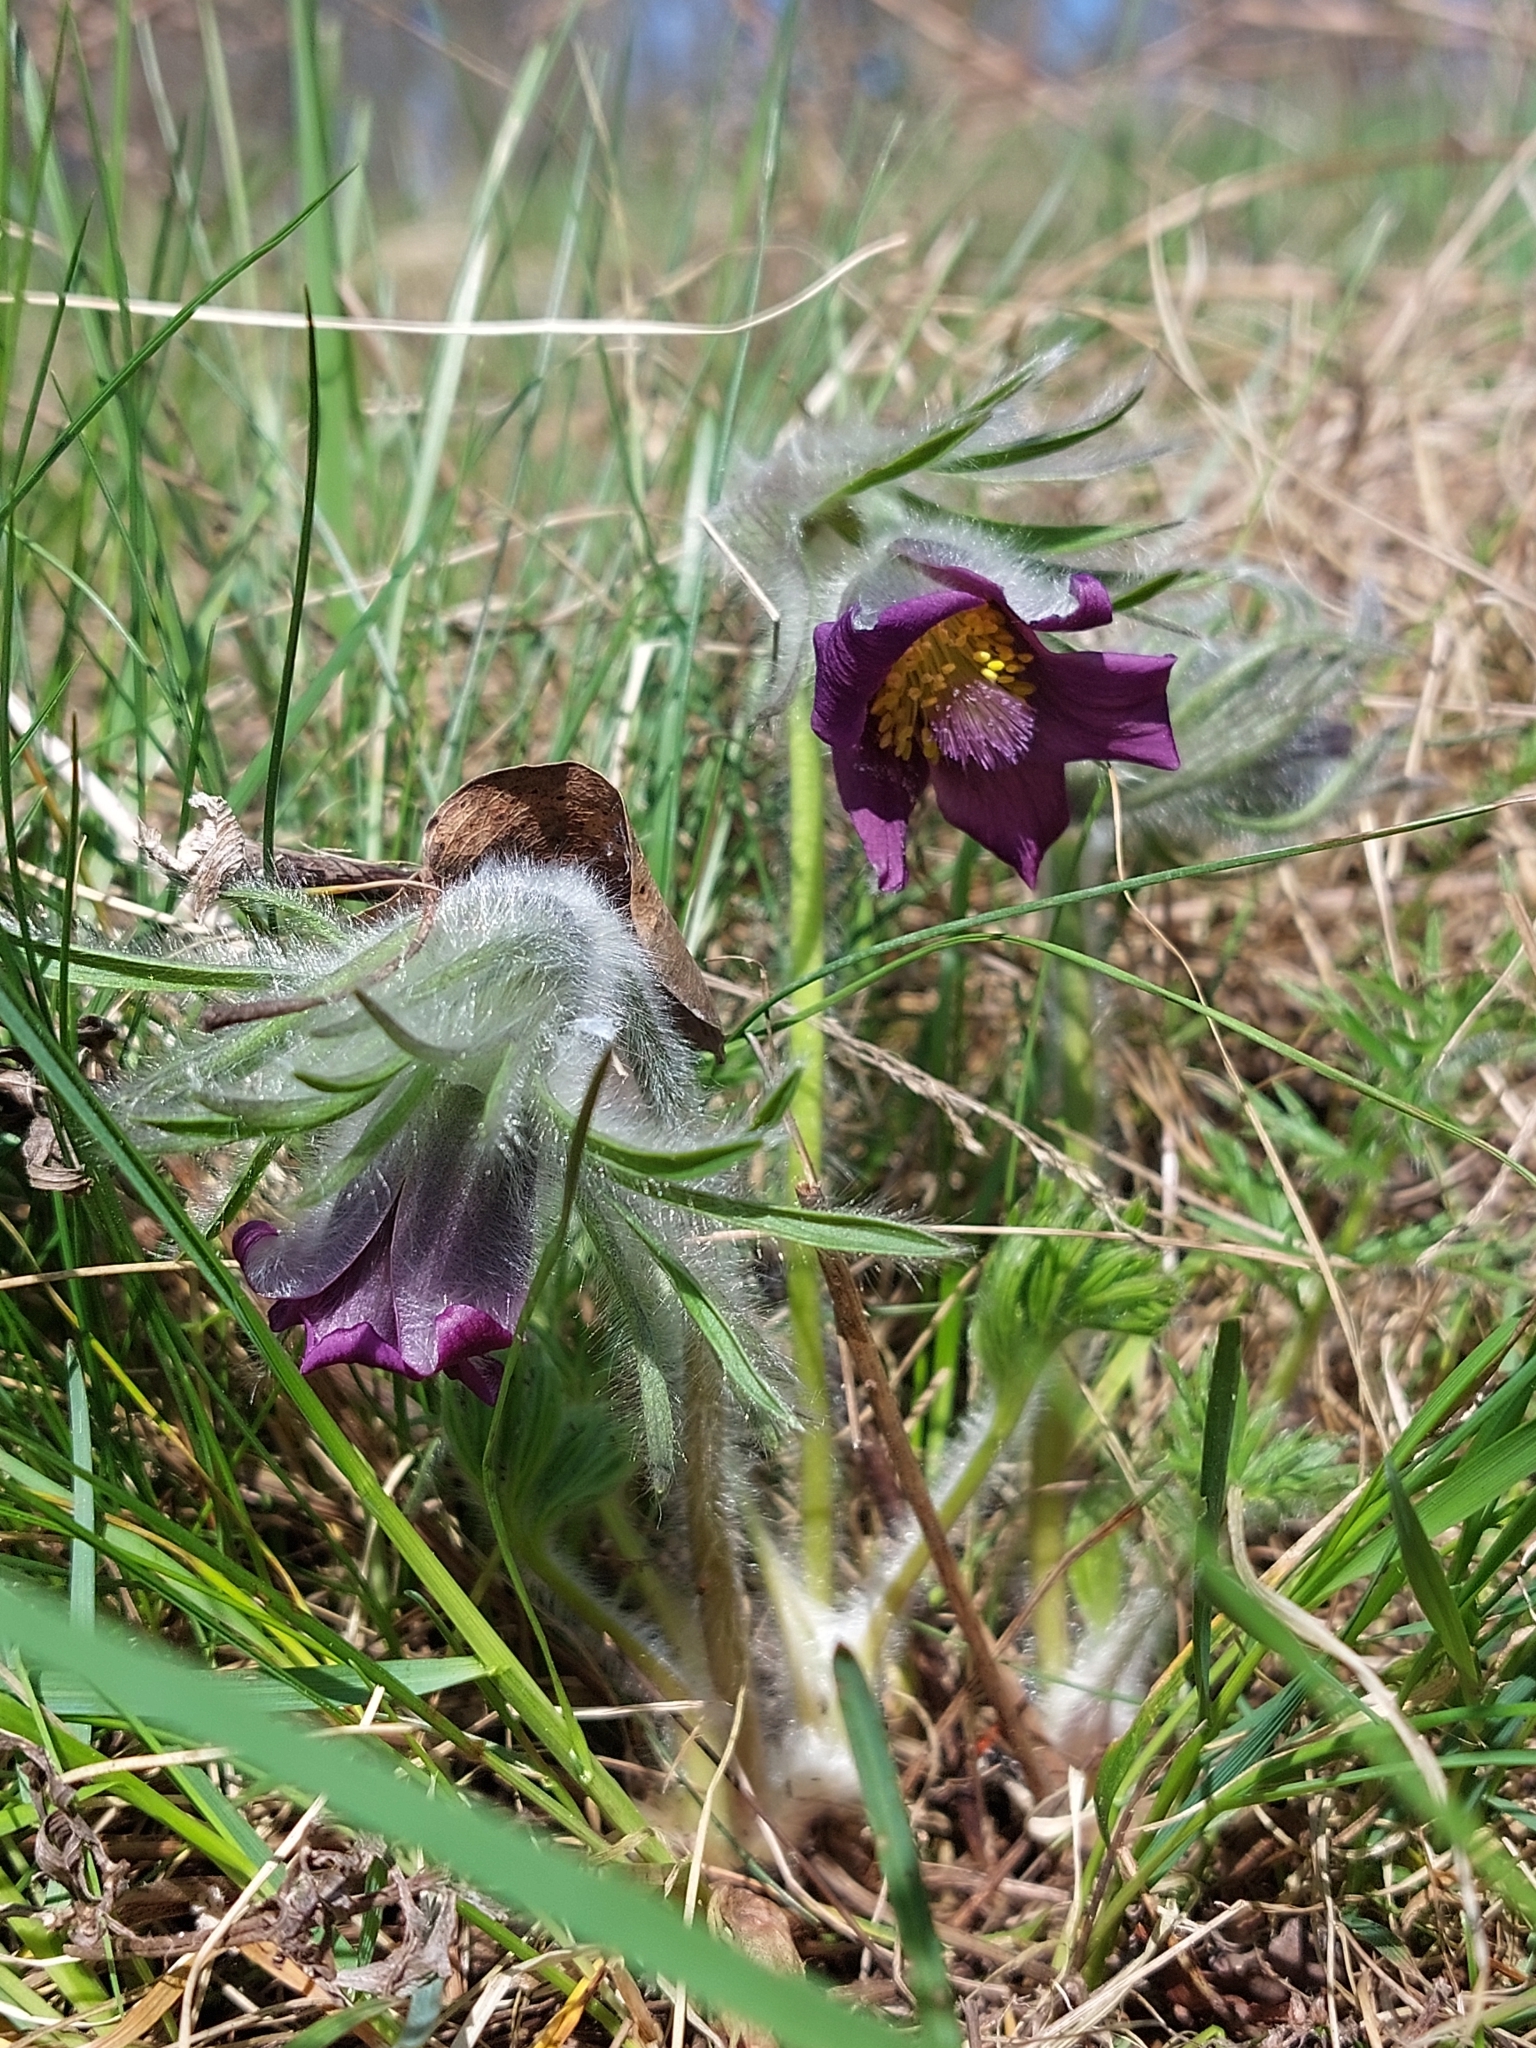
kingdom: Plantae
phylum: Tracheophyta
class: Magnoliopsida
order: Ranunculales
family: Ranunculaceae
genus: Pulsatilla
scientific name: Pulsatilla pratensis
